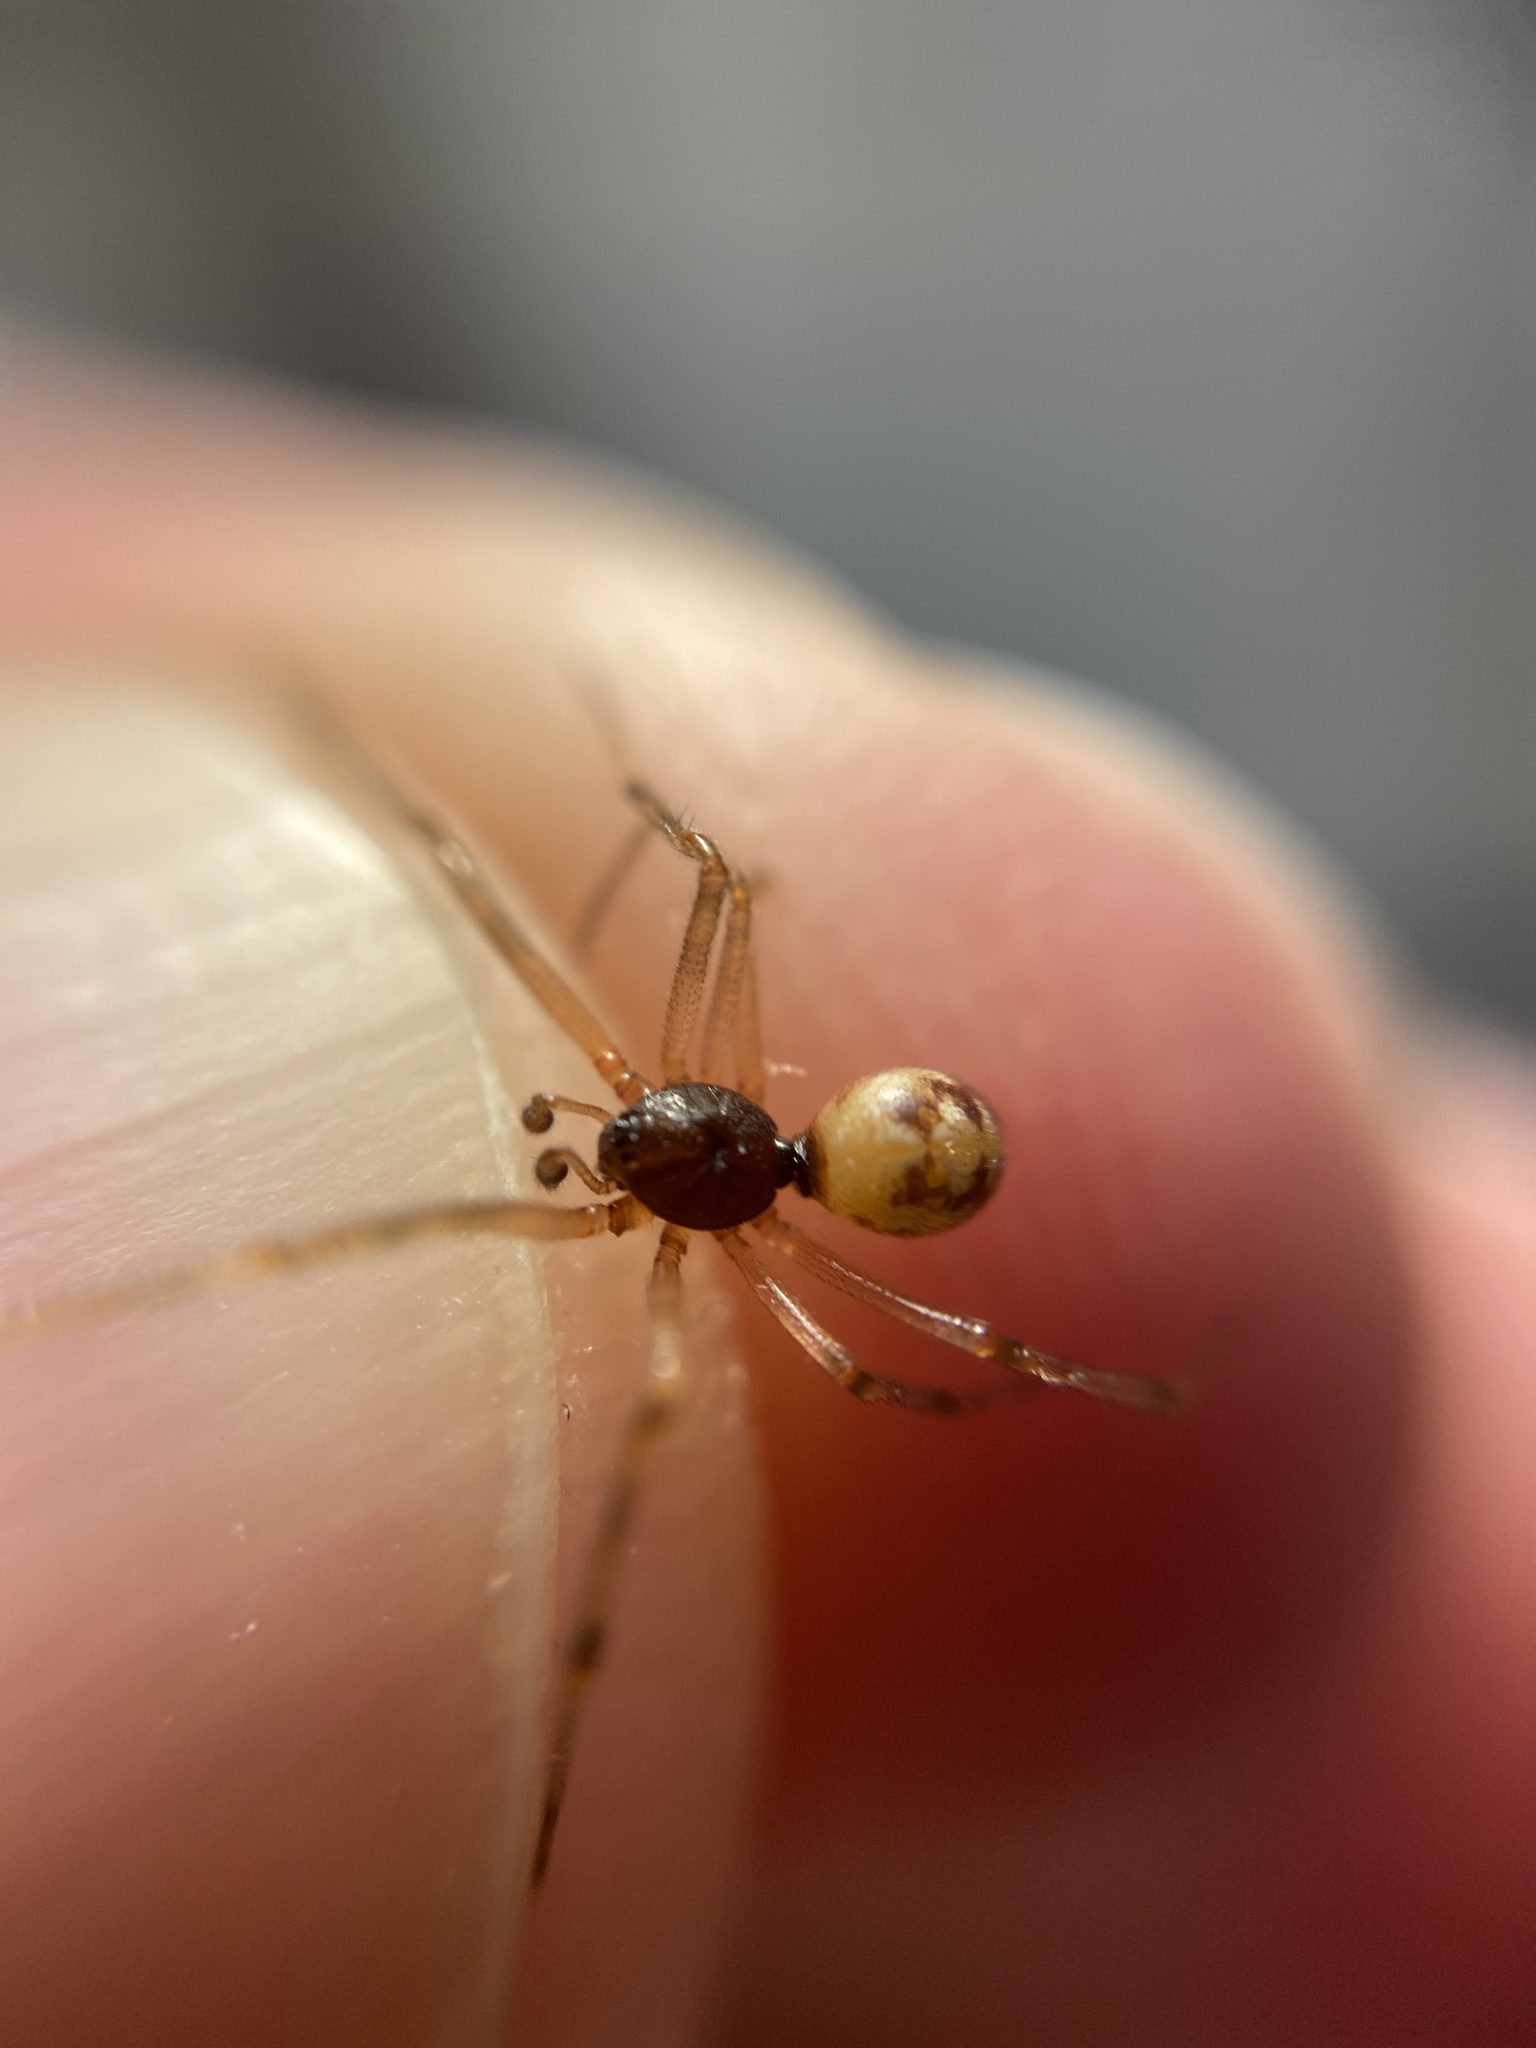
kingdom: Animalia
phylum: Arthropoda
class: Arachnida
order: Araneae
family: Theridiidae
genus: Steatoda
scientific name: Steatoda triangulosa
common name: Triangulate bud spider
